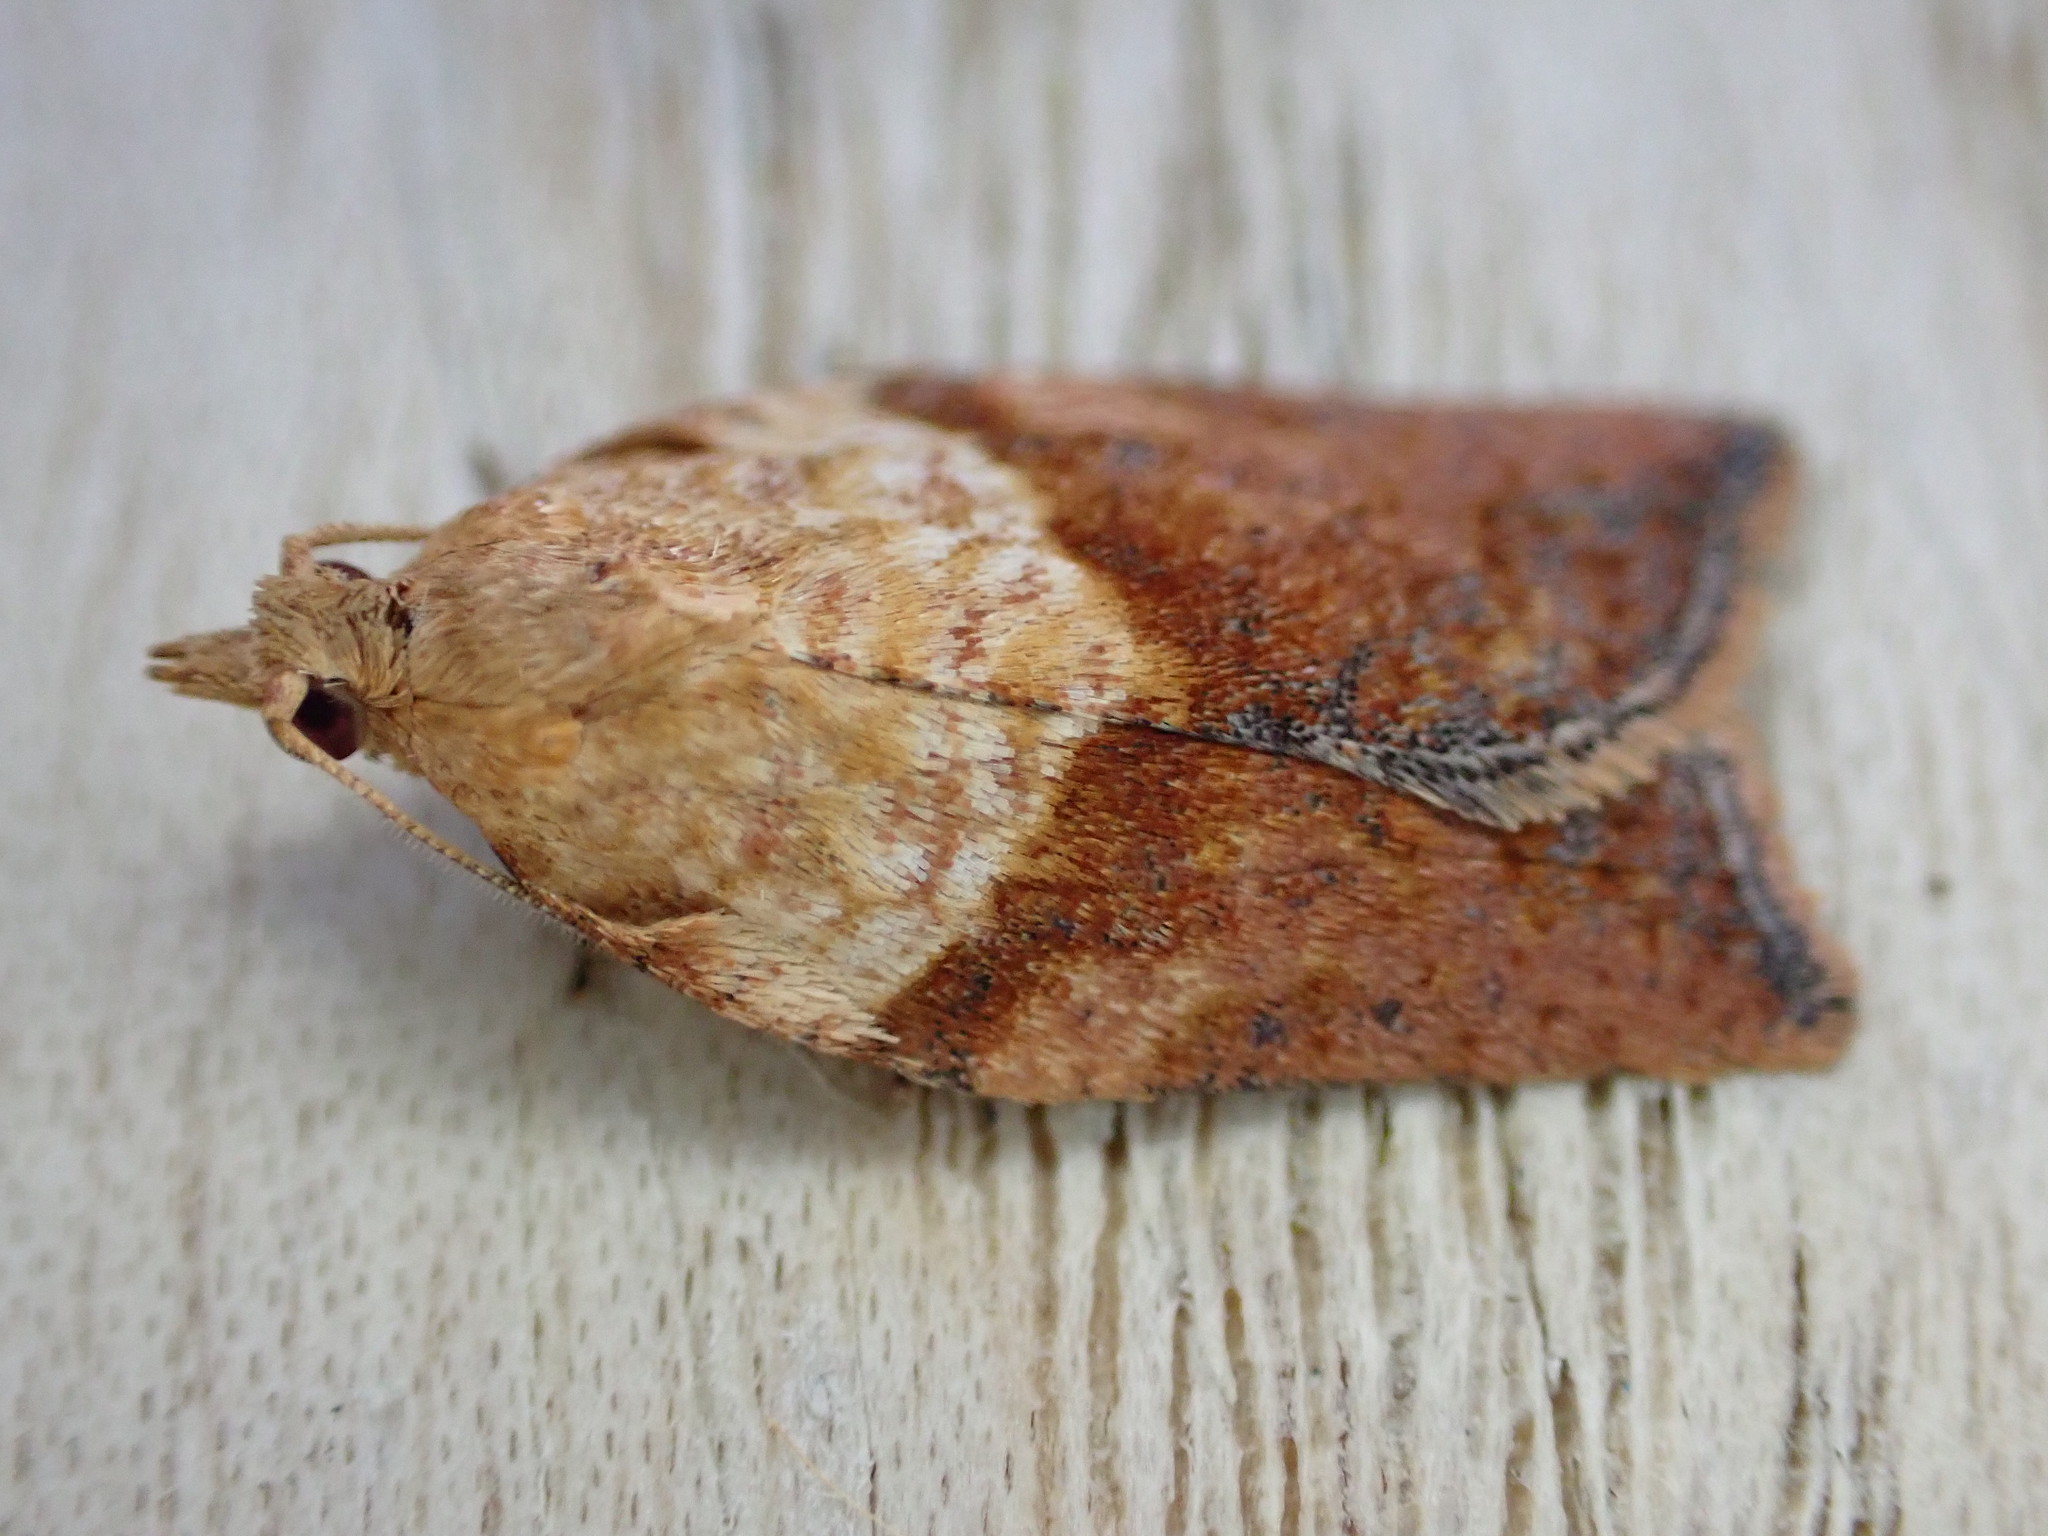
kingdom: Animalia
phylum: Arthropoda
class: Insecta
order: Lepidoptera
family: Tortricidae
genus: Epiphyas
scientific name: Epiphyas postvittana
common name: Light brown apple moth
